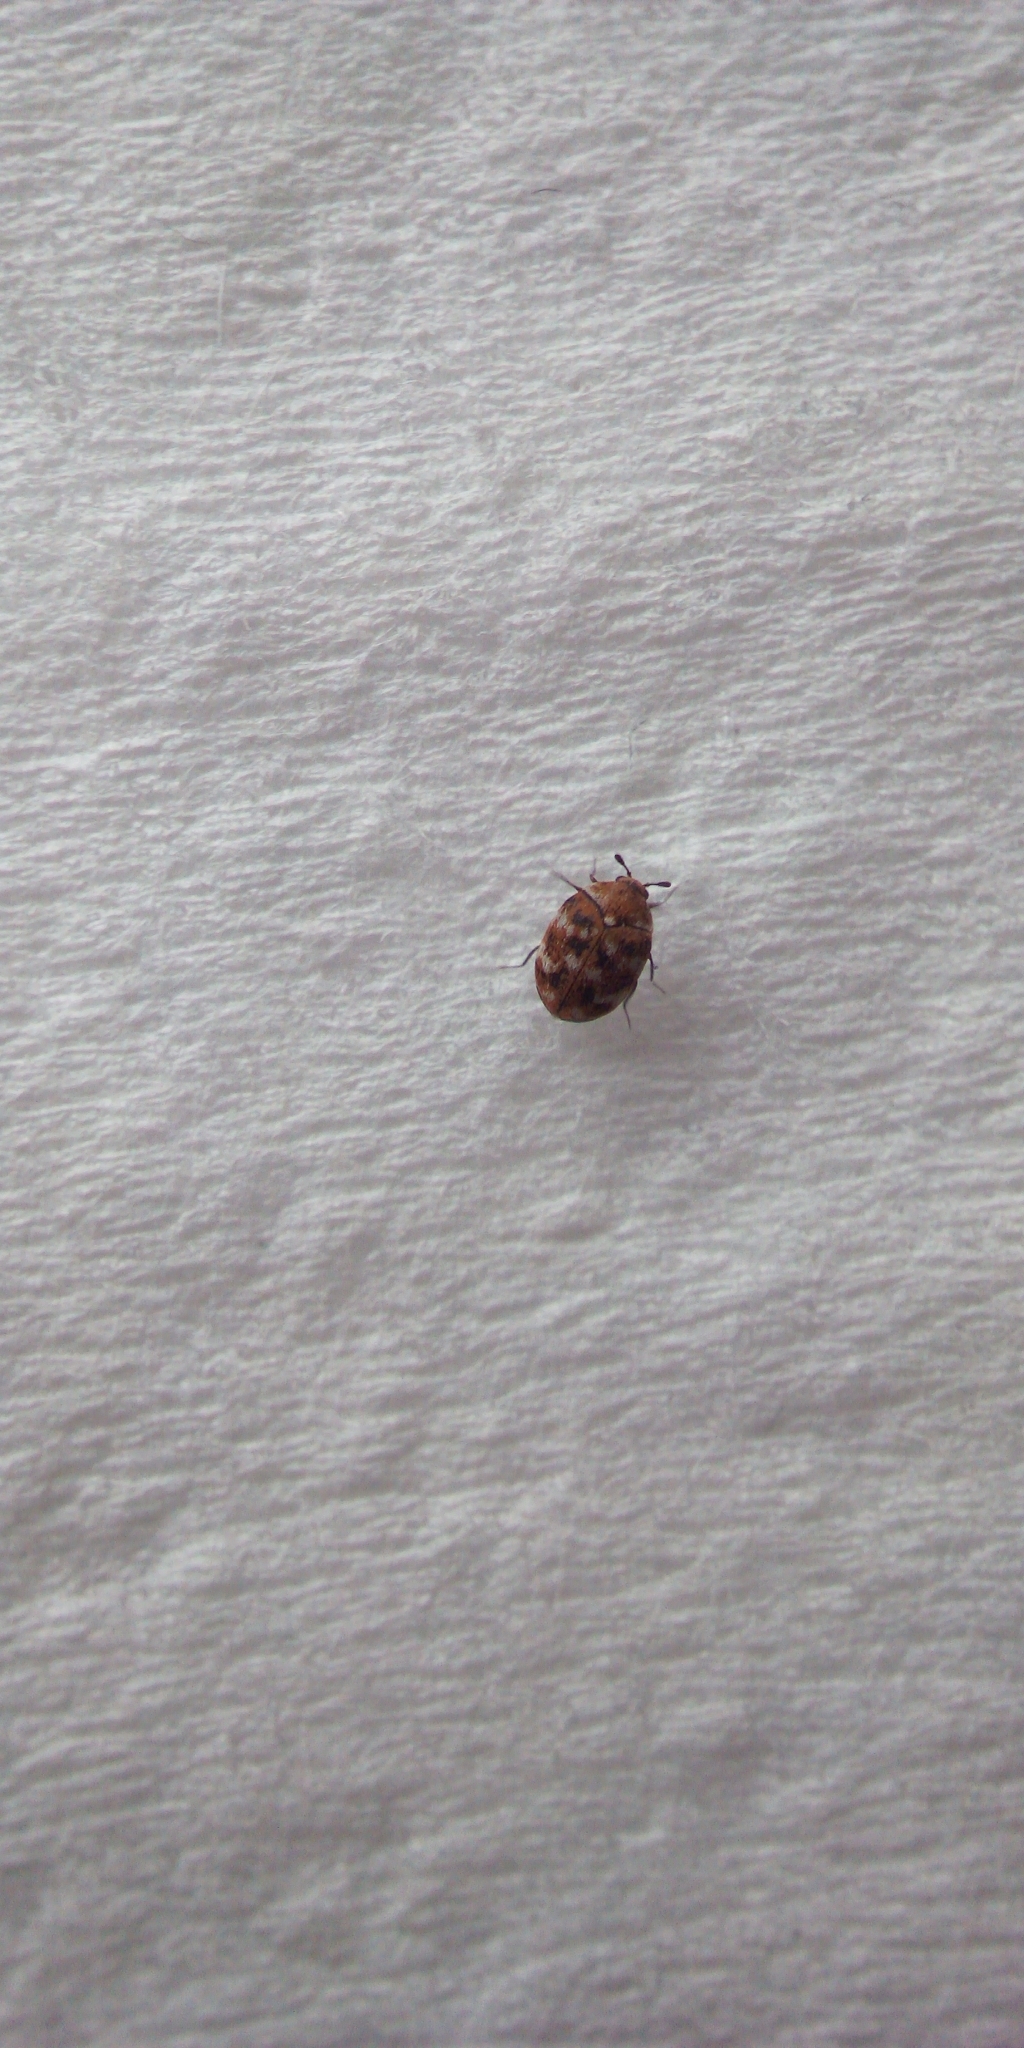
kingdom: Animalia
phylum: Arthropoda
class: Insecta
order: Coleoptera
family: Dermestidae
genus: Anthrenus
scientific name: Anthrenus verbasci
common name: Varied carpet beetle
